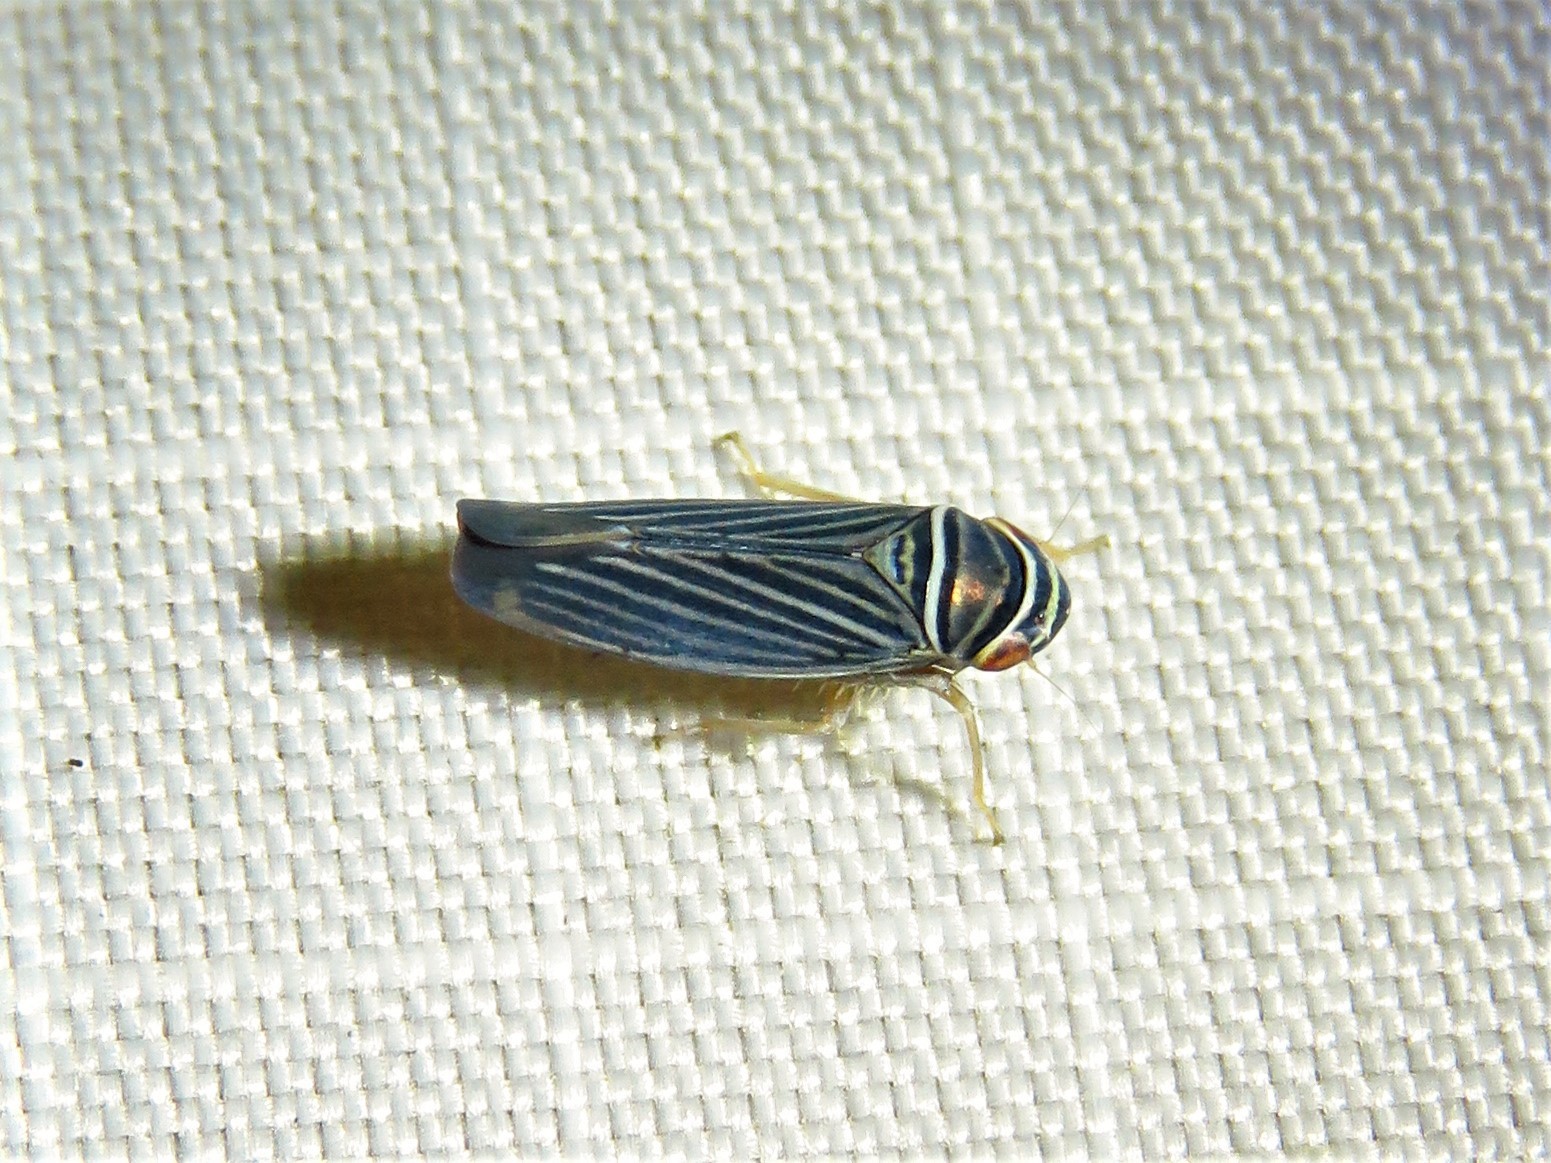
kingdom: Animalia
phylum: Arthropoda
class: Insecta
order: Hemiptera
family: Cicadellidae
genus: Tylozygus
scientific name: Tylozygus bifidus
